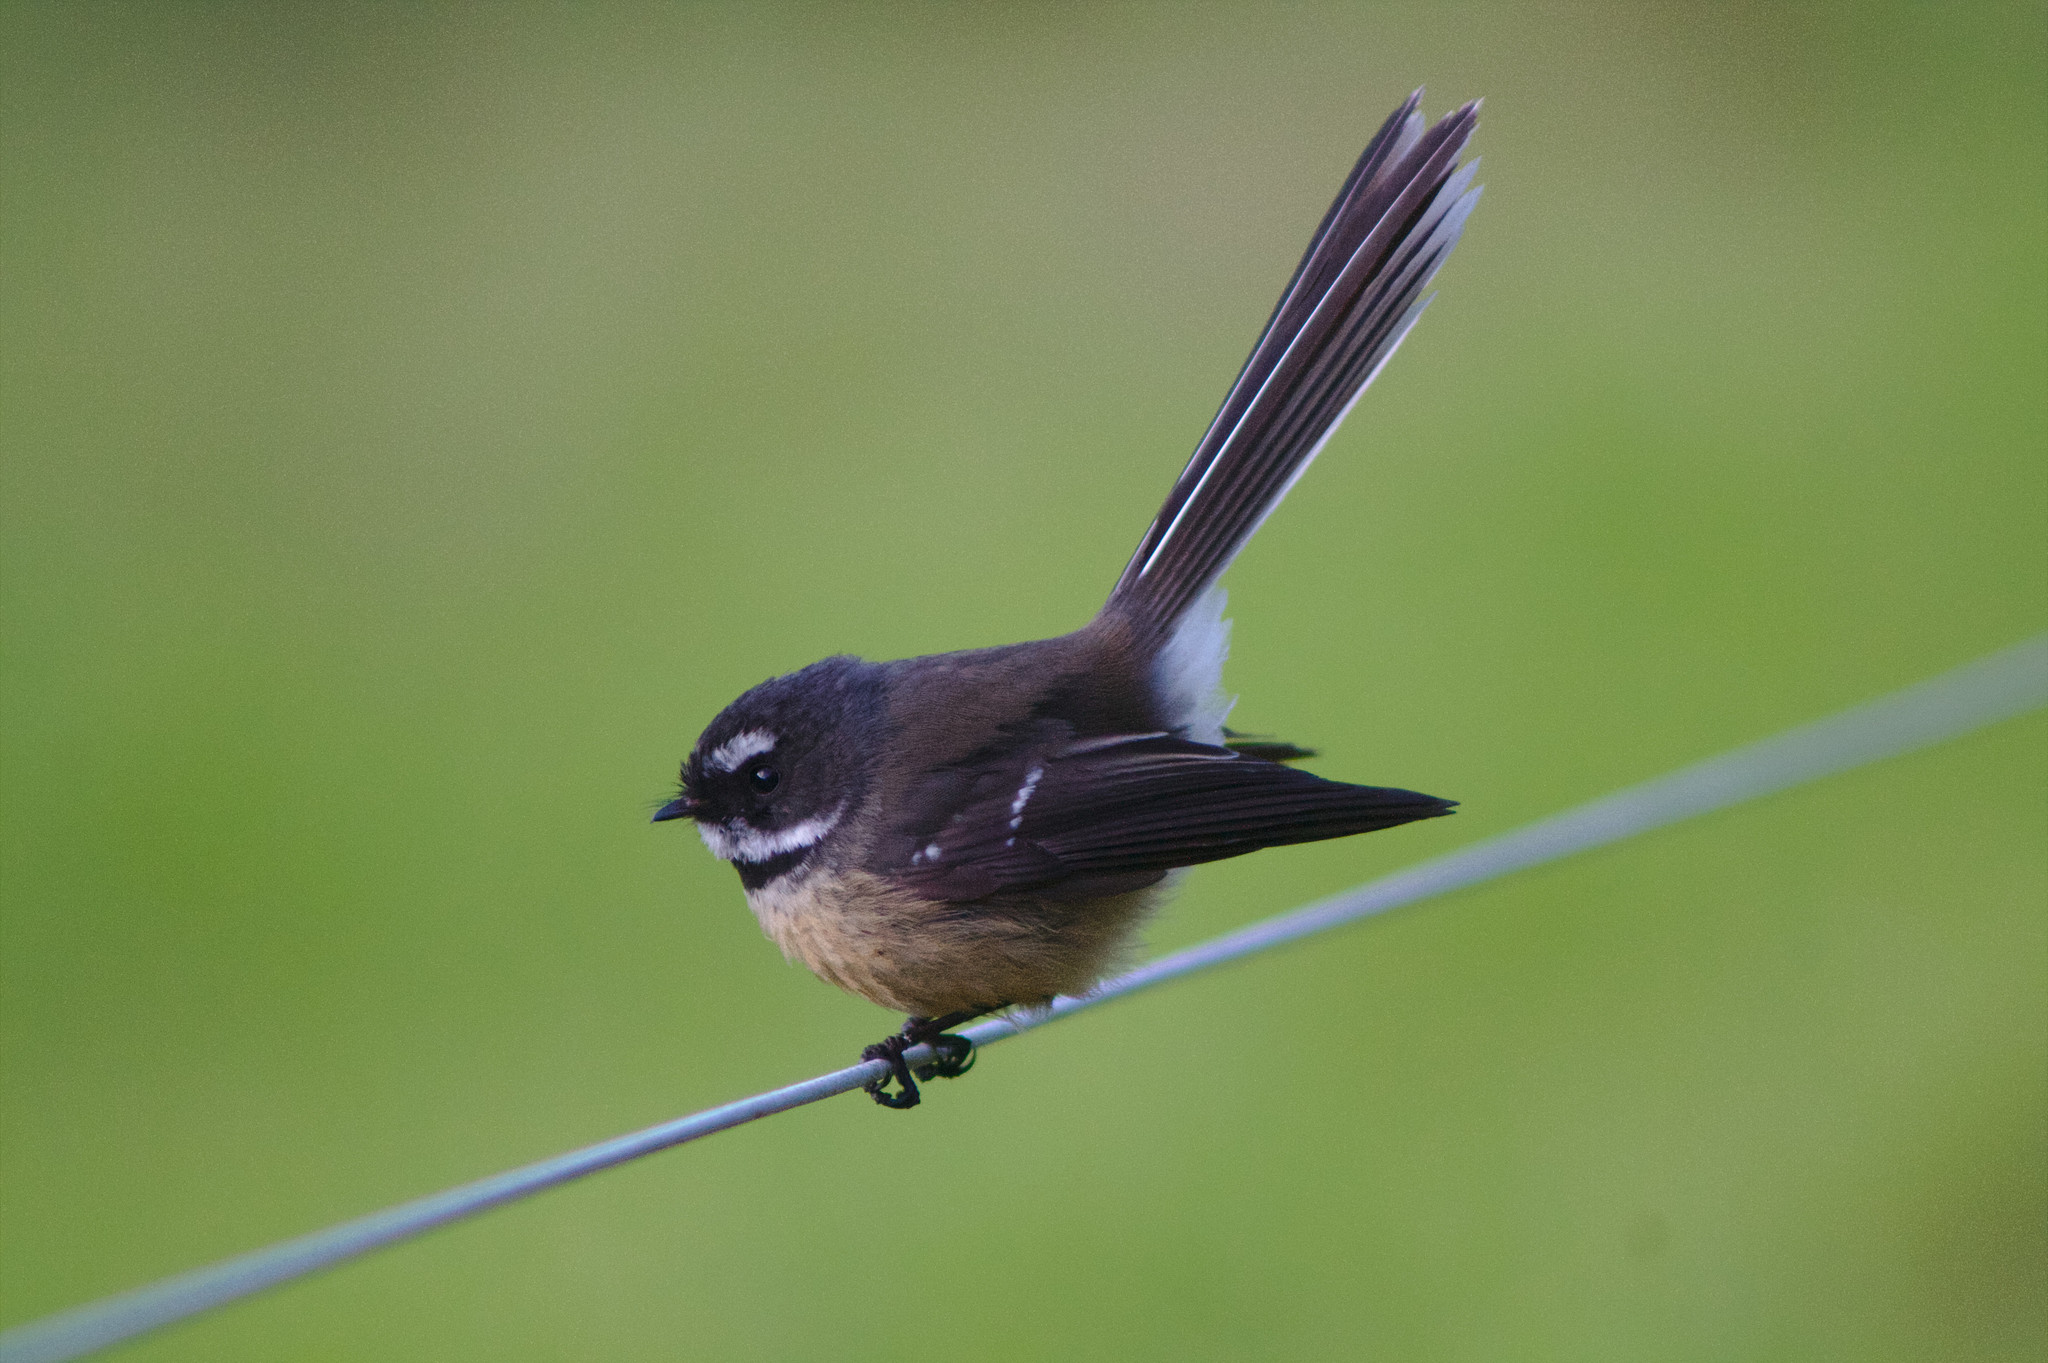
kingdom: Animalia
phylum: Chordata
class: Aves
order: Passeriformes
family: Rhipiduridae
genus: Rhipidura
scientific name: Rhipidura fuliginosa
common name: New zealand fantail
